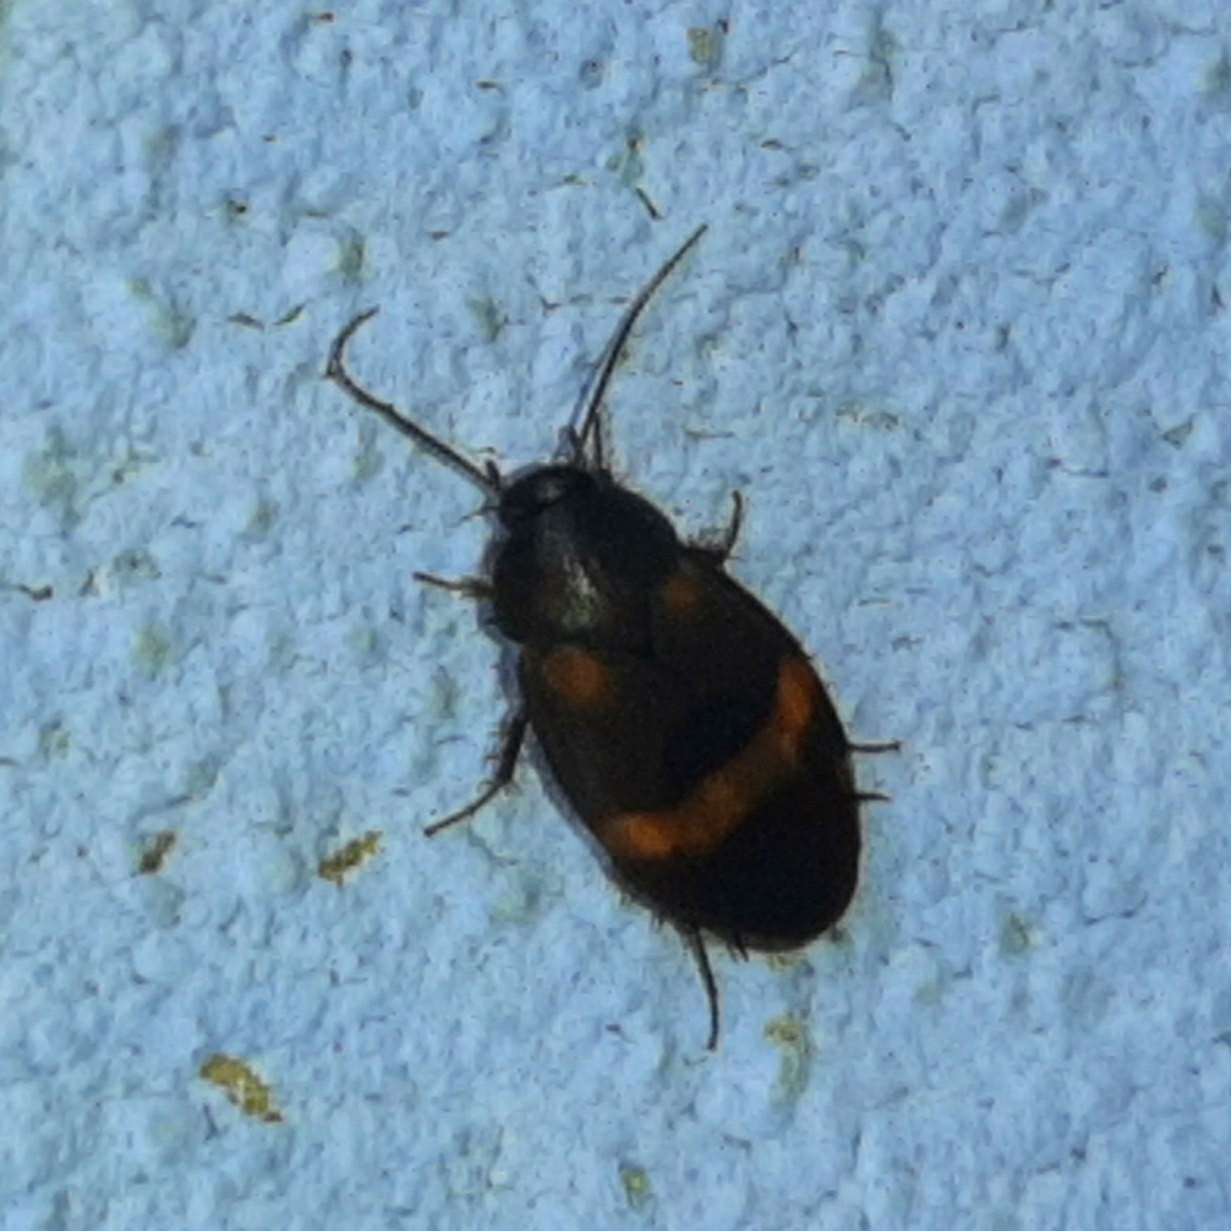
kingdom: Animalia
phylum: Arthropoda
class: Insecta
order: Blattodea
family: Corydiidae
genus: Holocompsa
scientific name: Holocompsa azteca
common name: Aztec hairy cockroach
